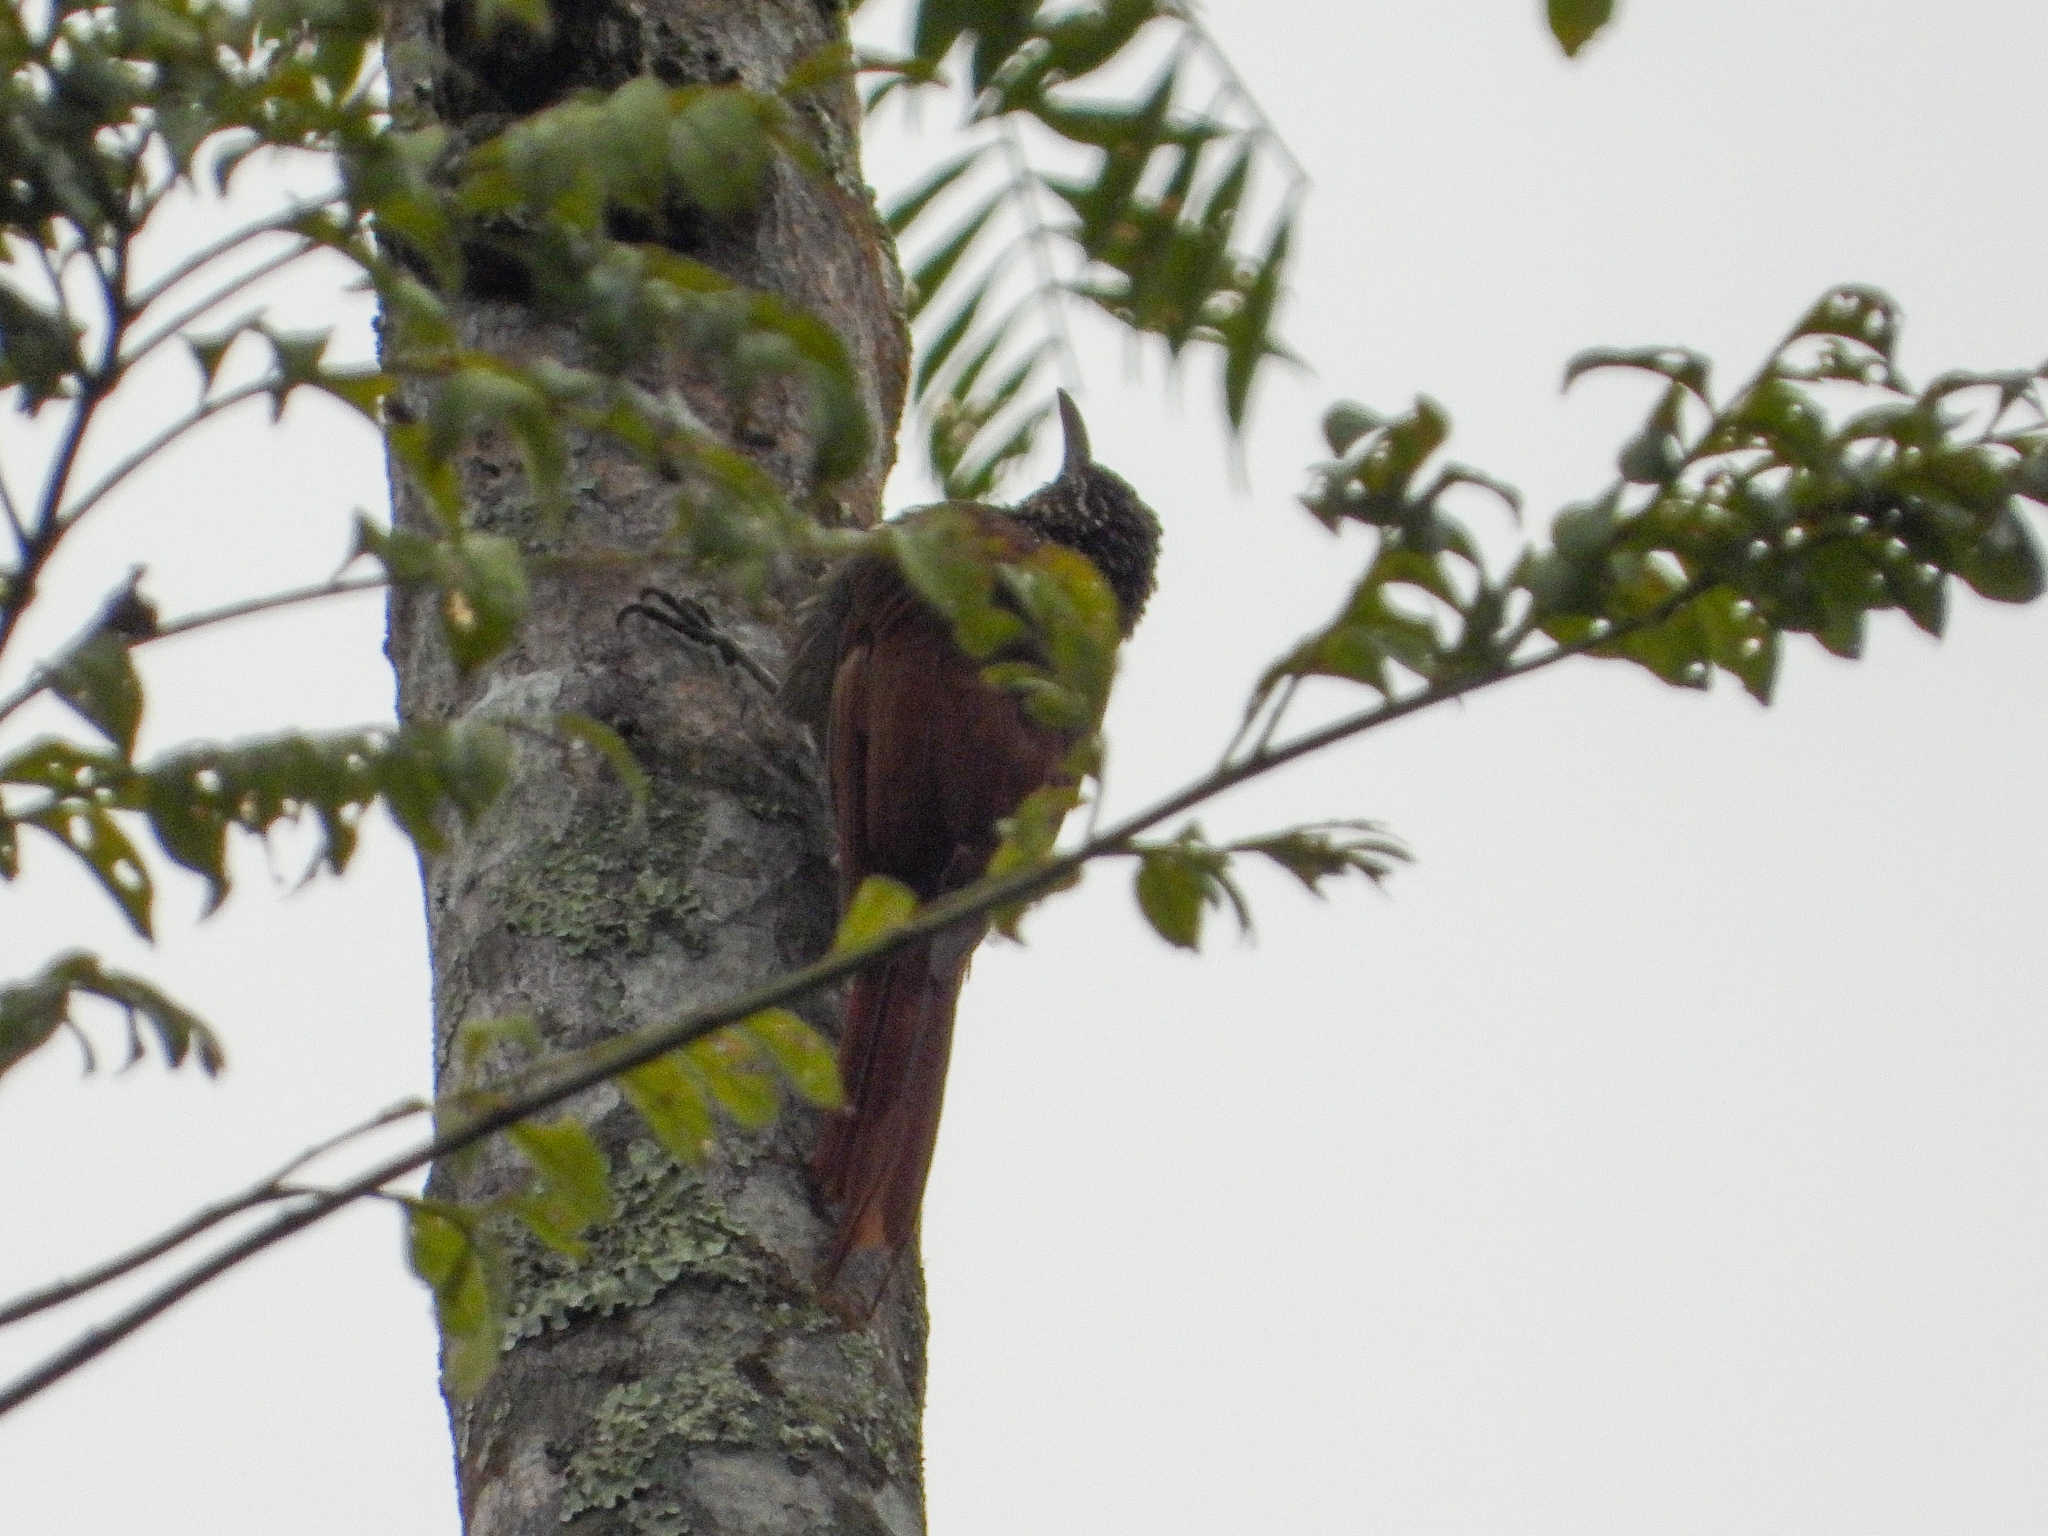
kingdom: Animalia
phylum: Chordata
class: Aves
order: Passeriformes
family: Furnariidae
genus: Lepidocolaptes
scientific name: Lepidocolaptes souleyetii
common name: Streak-headed woodcreeper
